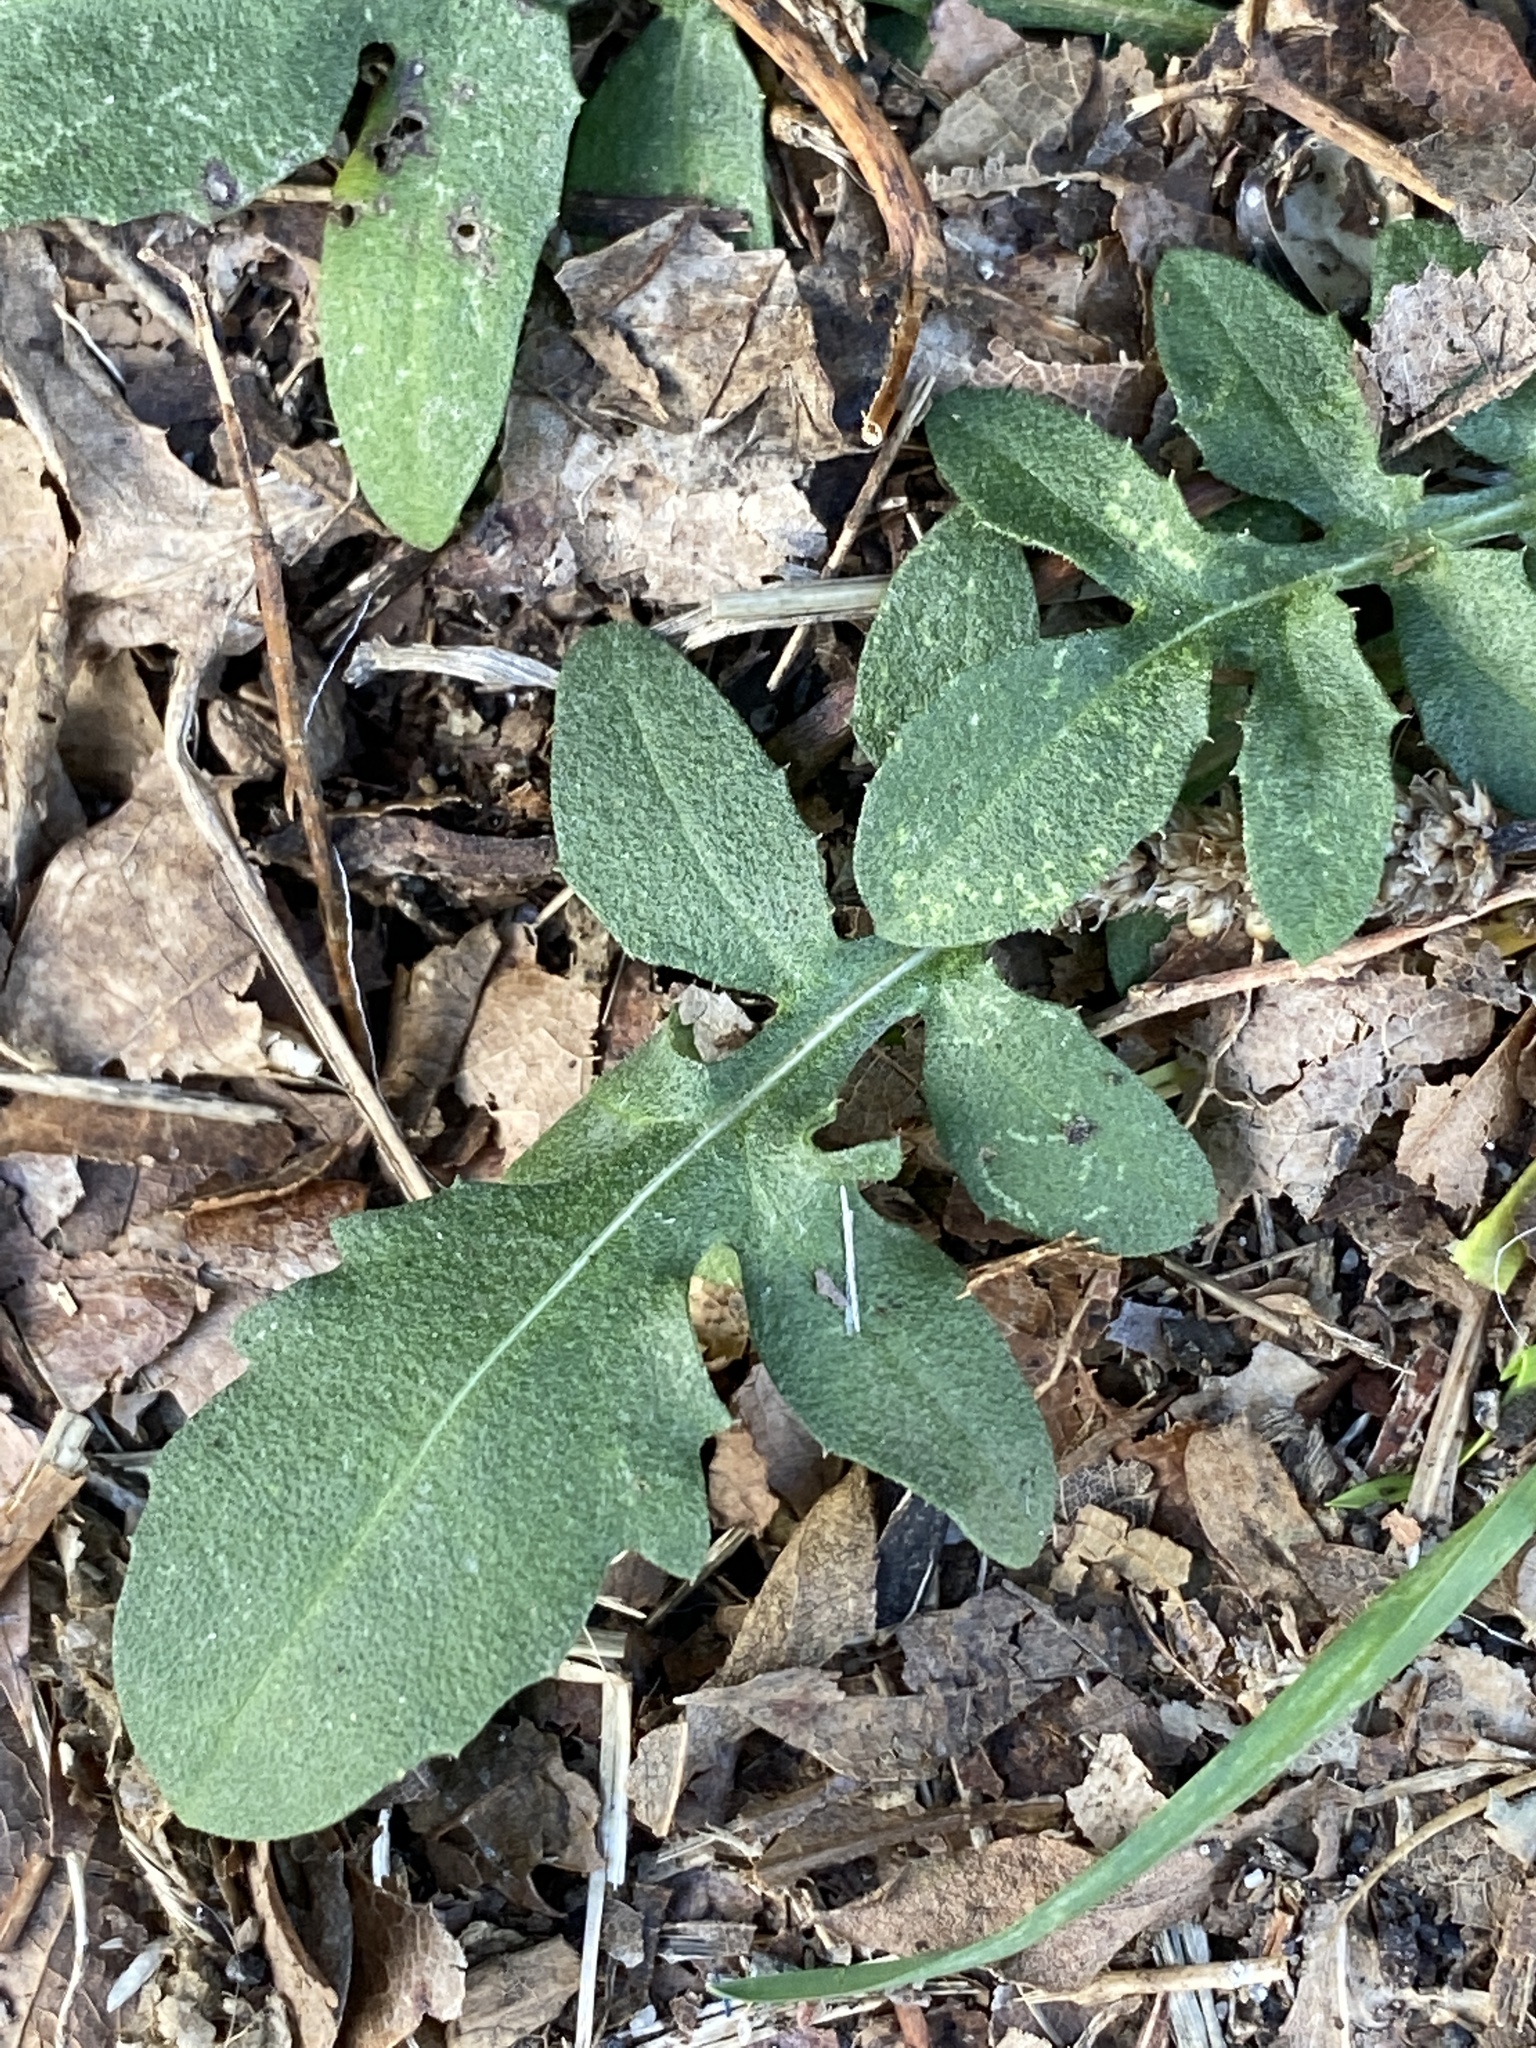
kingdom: Plantae
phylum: Tracheophyta
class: Magnoliopsida
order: Asterales
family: Asteraceae
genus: Centaurea
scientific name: Centaurea stoebe
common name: Spotted knapweed
